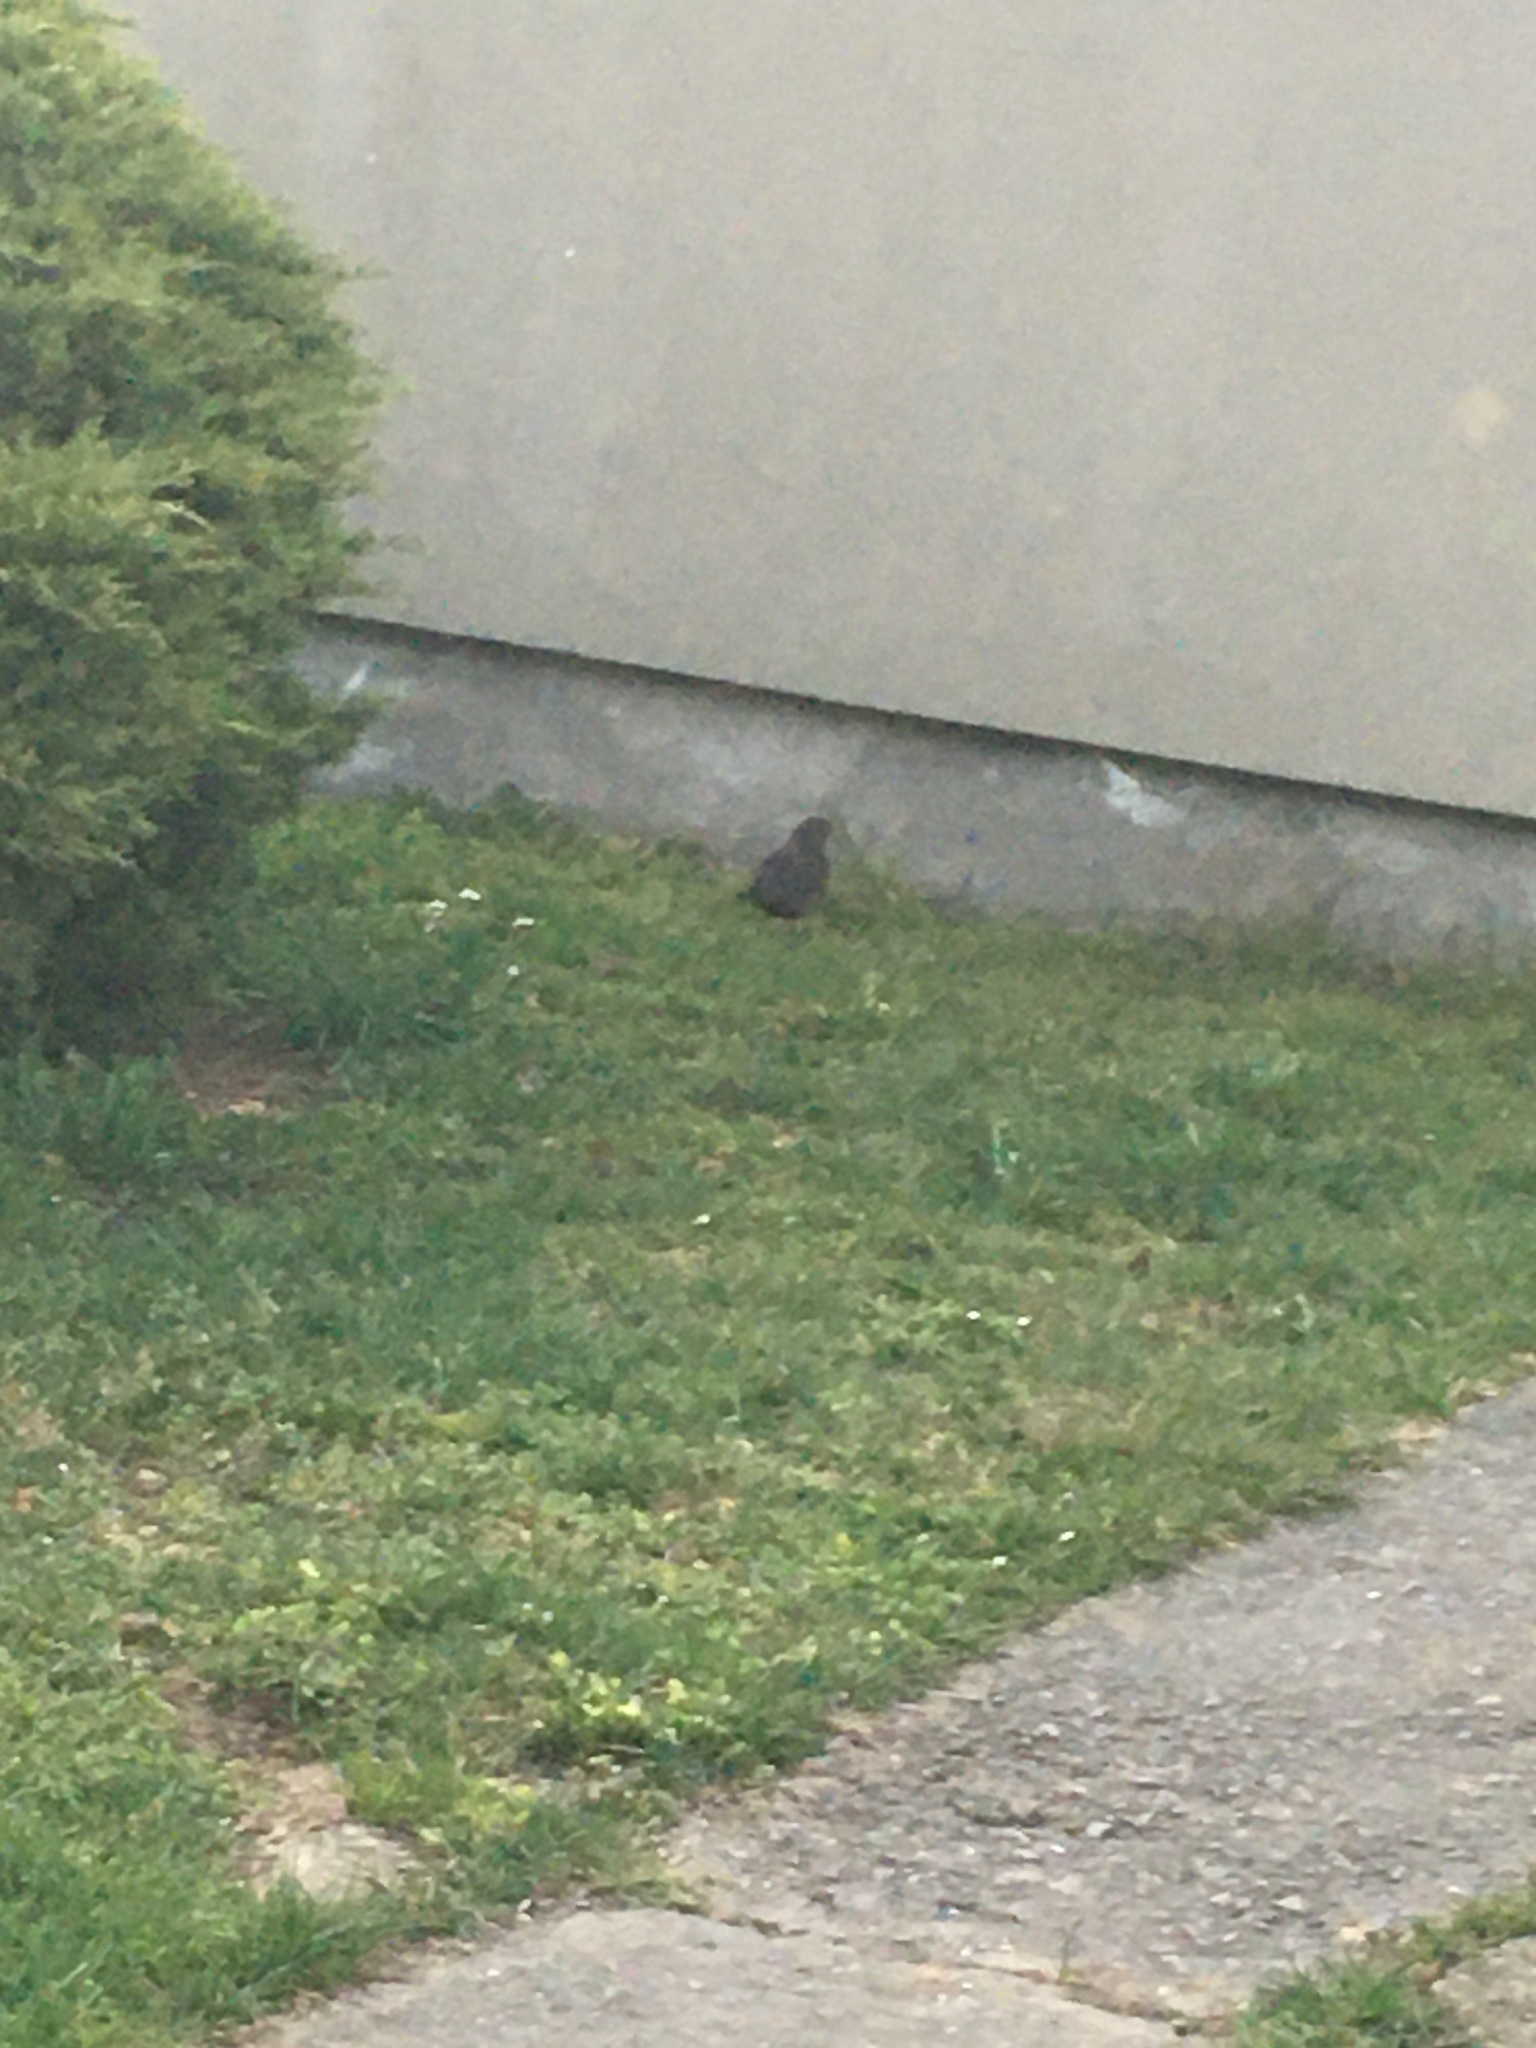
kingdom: Animalia
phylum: Chordata
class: Aves
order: Passeriformes
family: Turdidae
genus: Turdus
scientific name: Turdus merula
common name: Common blackbird
